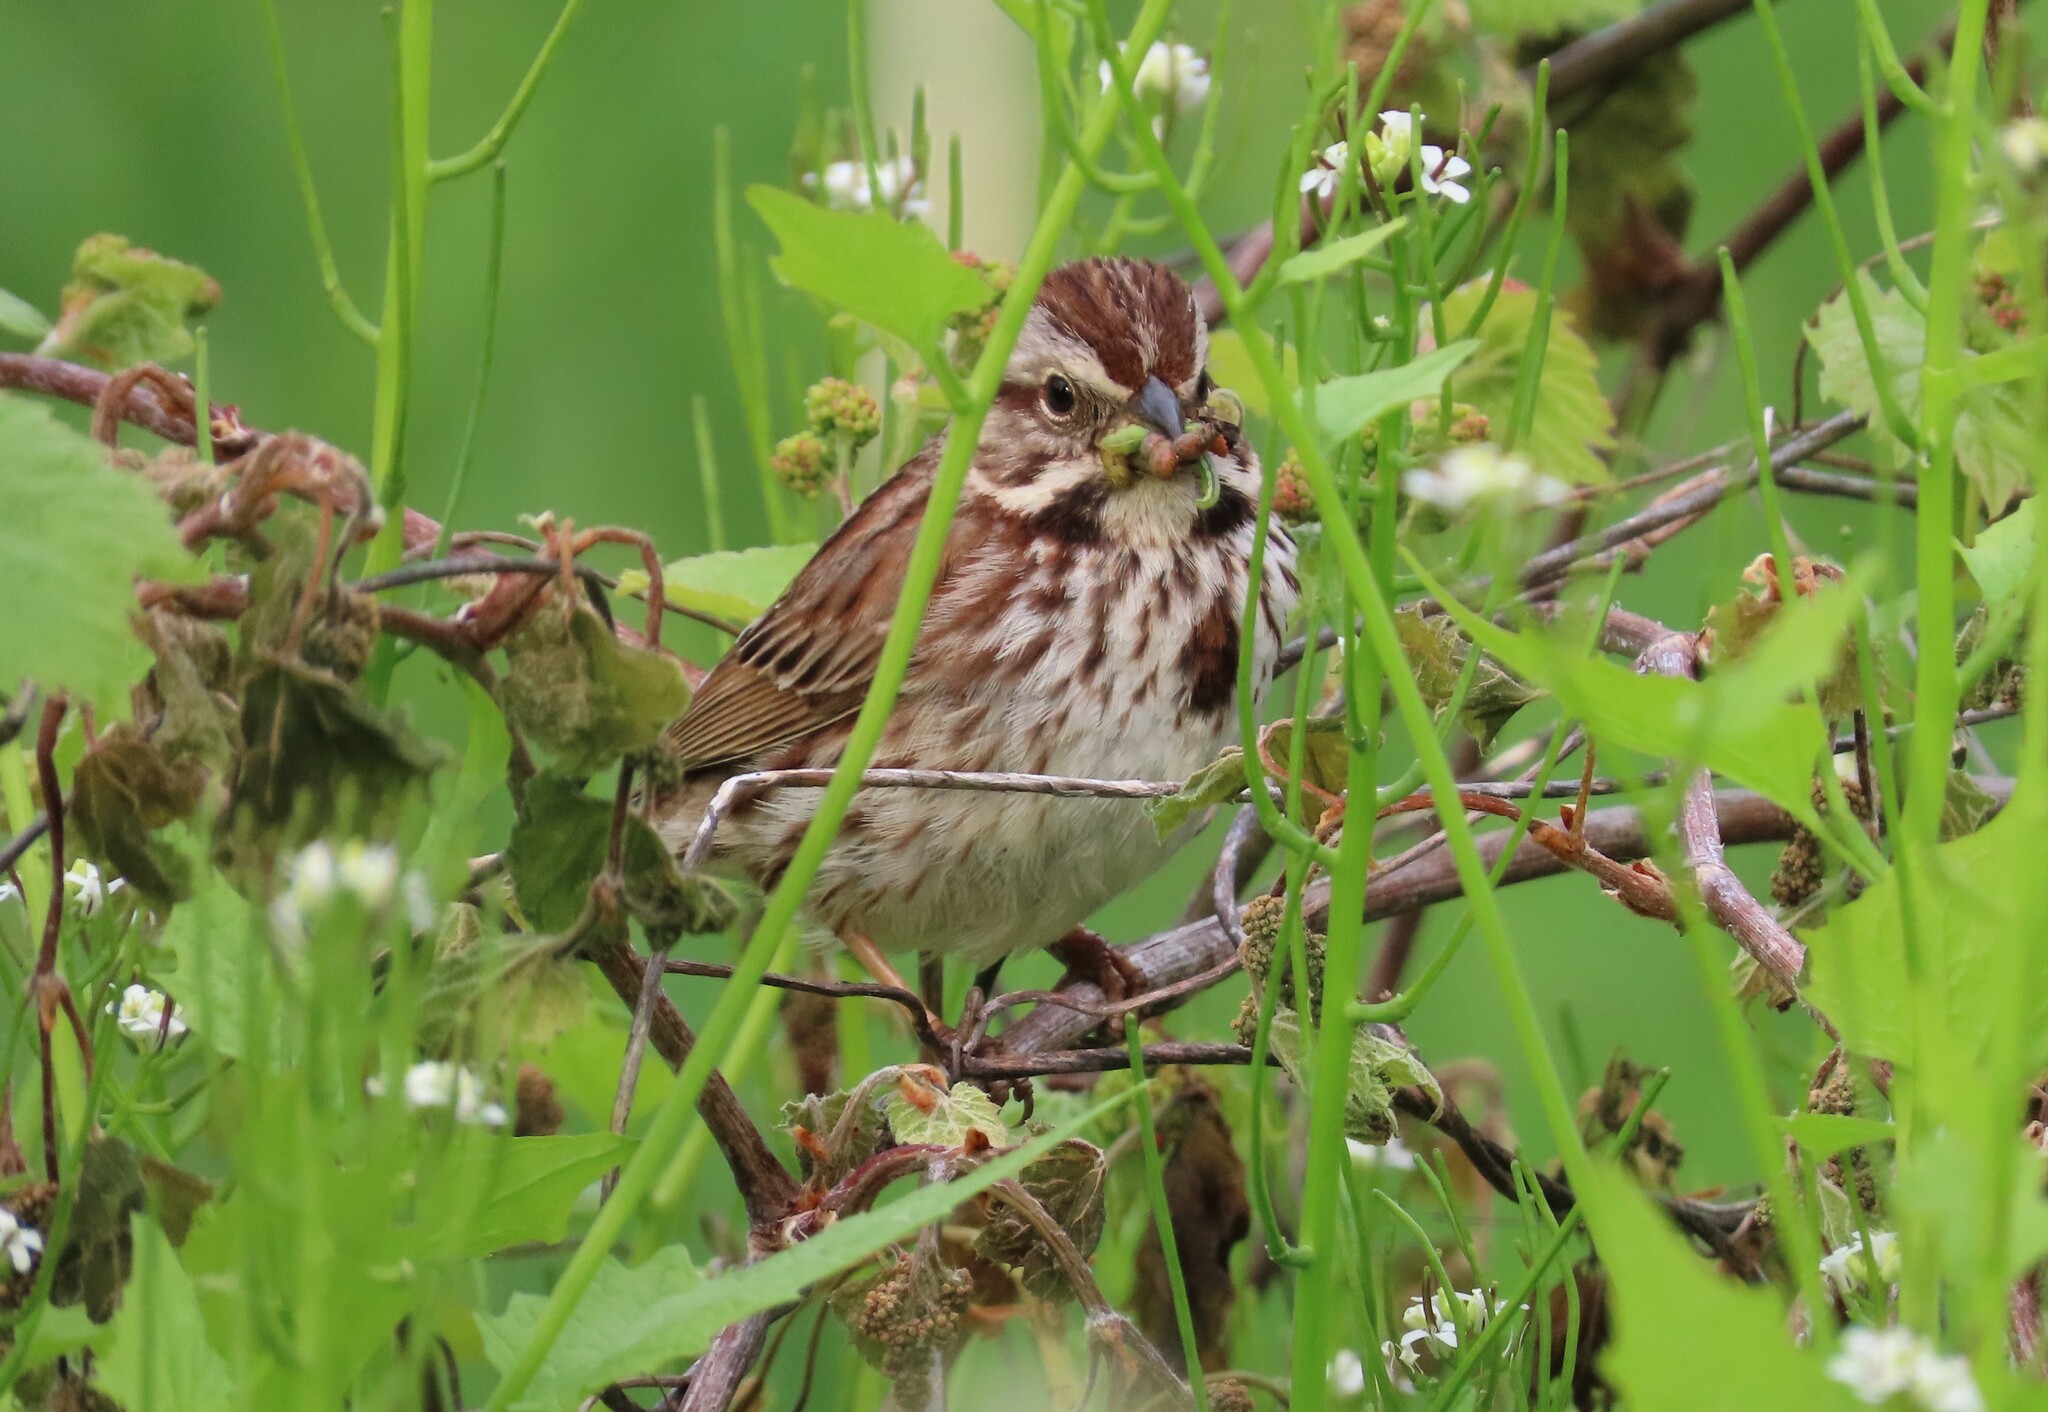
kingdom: Animalia
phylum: Chordata
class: Aves
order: Passeriformes
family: Passerellidae
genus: Melospiza
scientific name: Melospiza melodia
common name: Song sparrow
